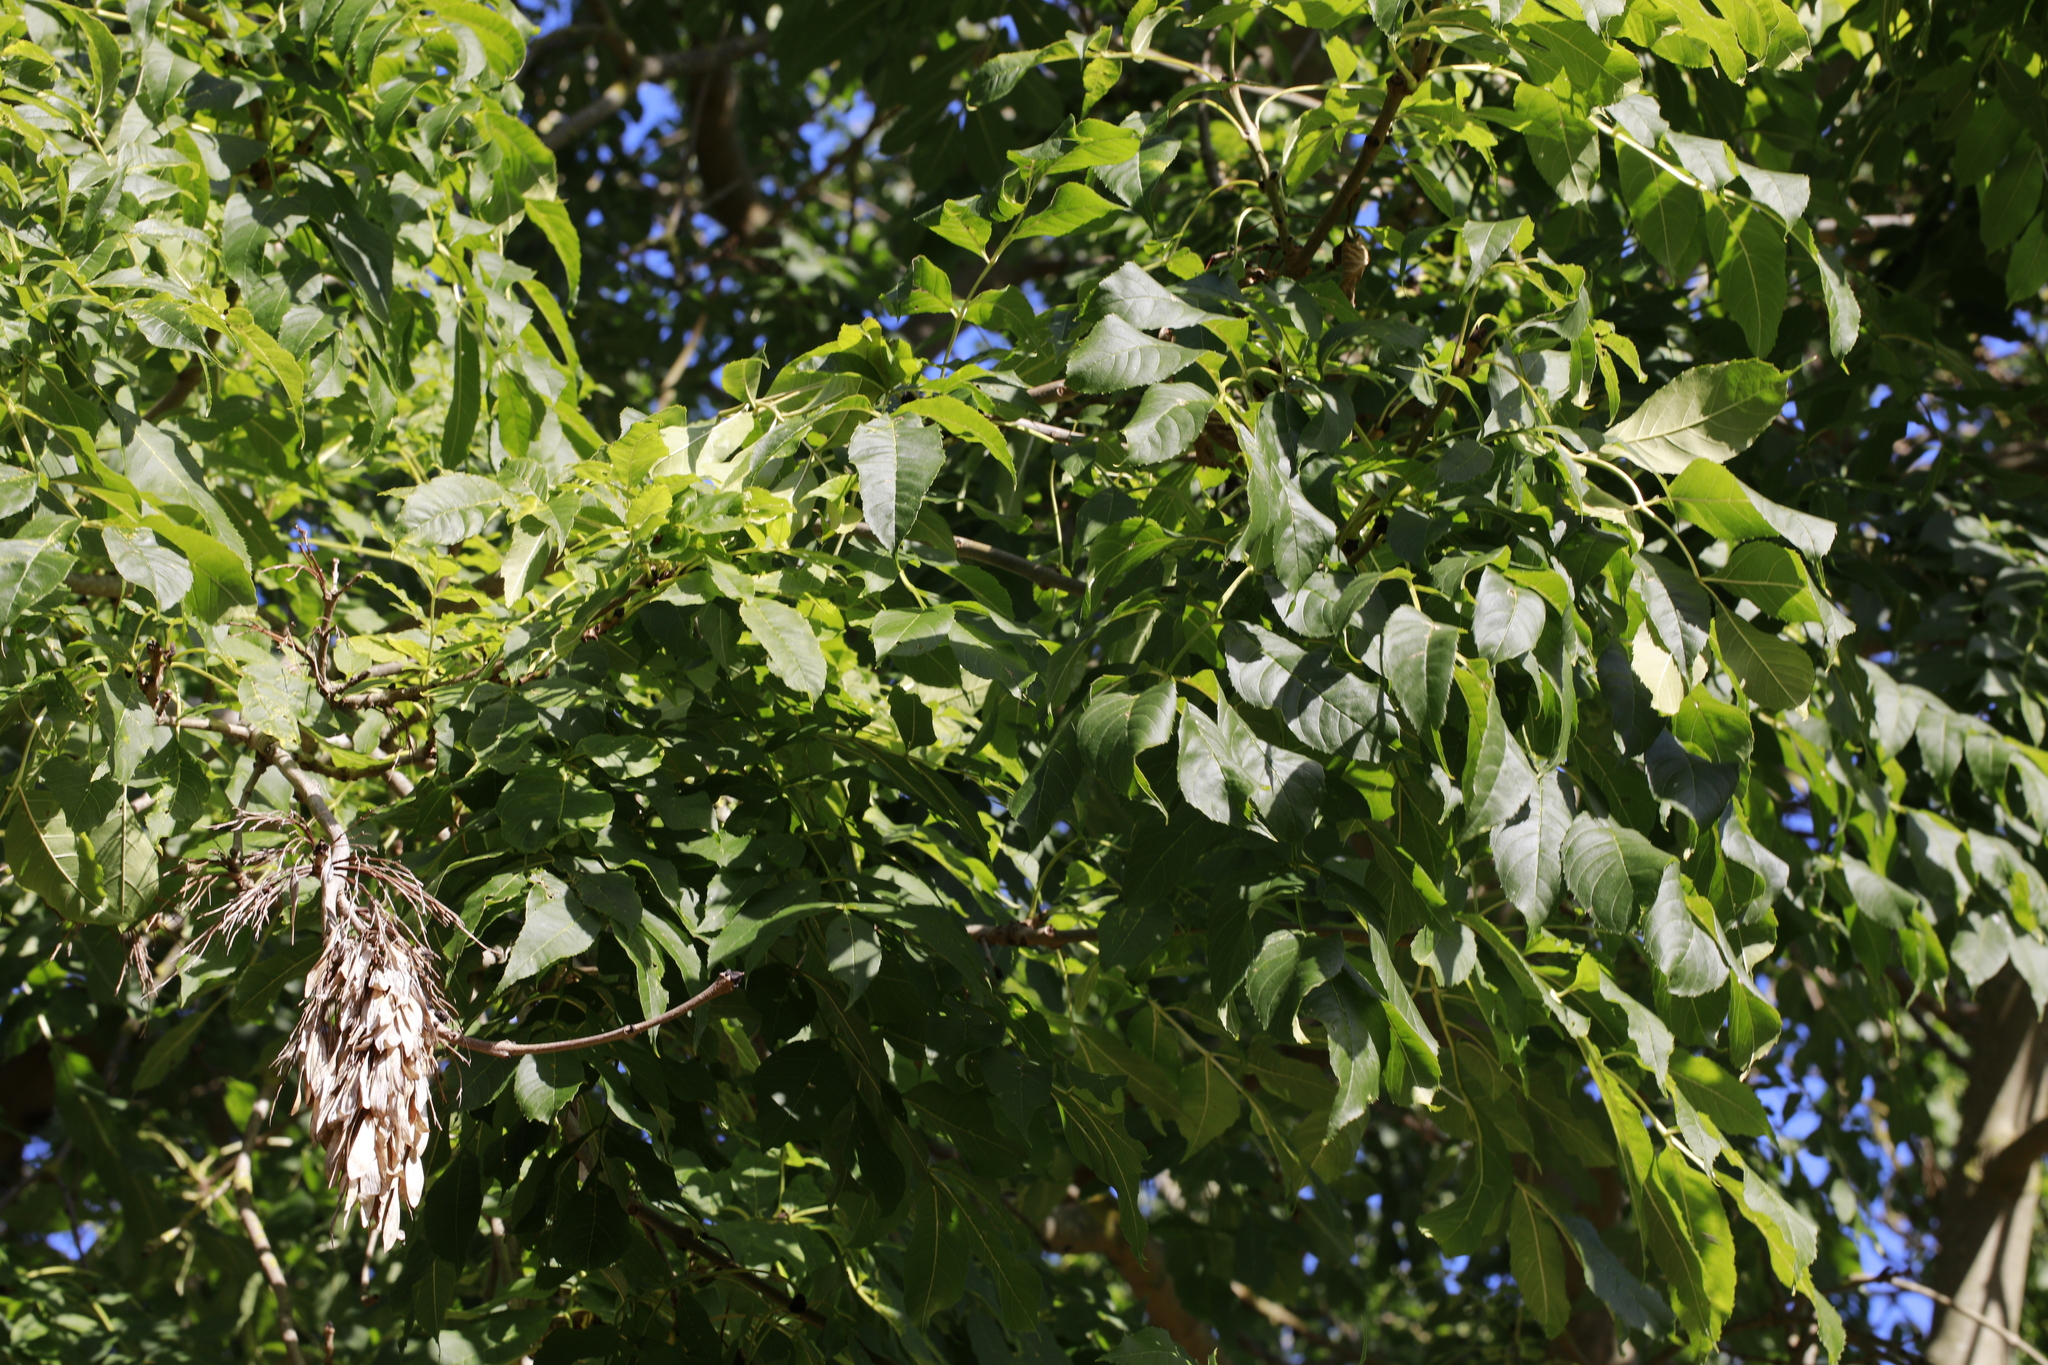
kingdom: Plantae
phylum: Tracheophyta
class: Magnoliopsida
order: Lamiales
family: Oleaceae
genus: Fraxinus
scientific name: Fraxinus excelsior
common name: European ash
